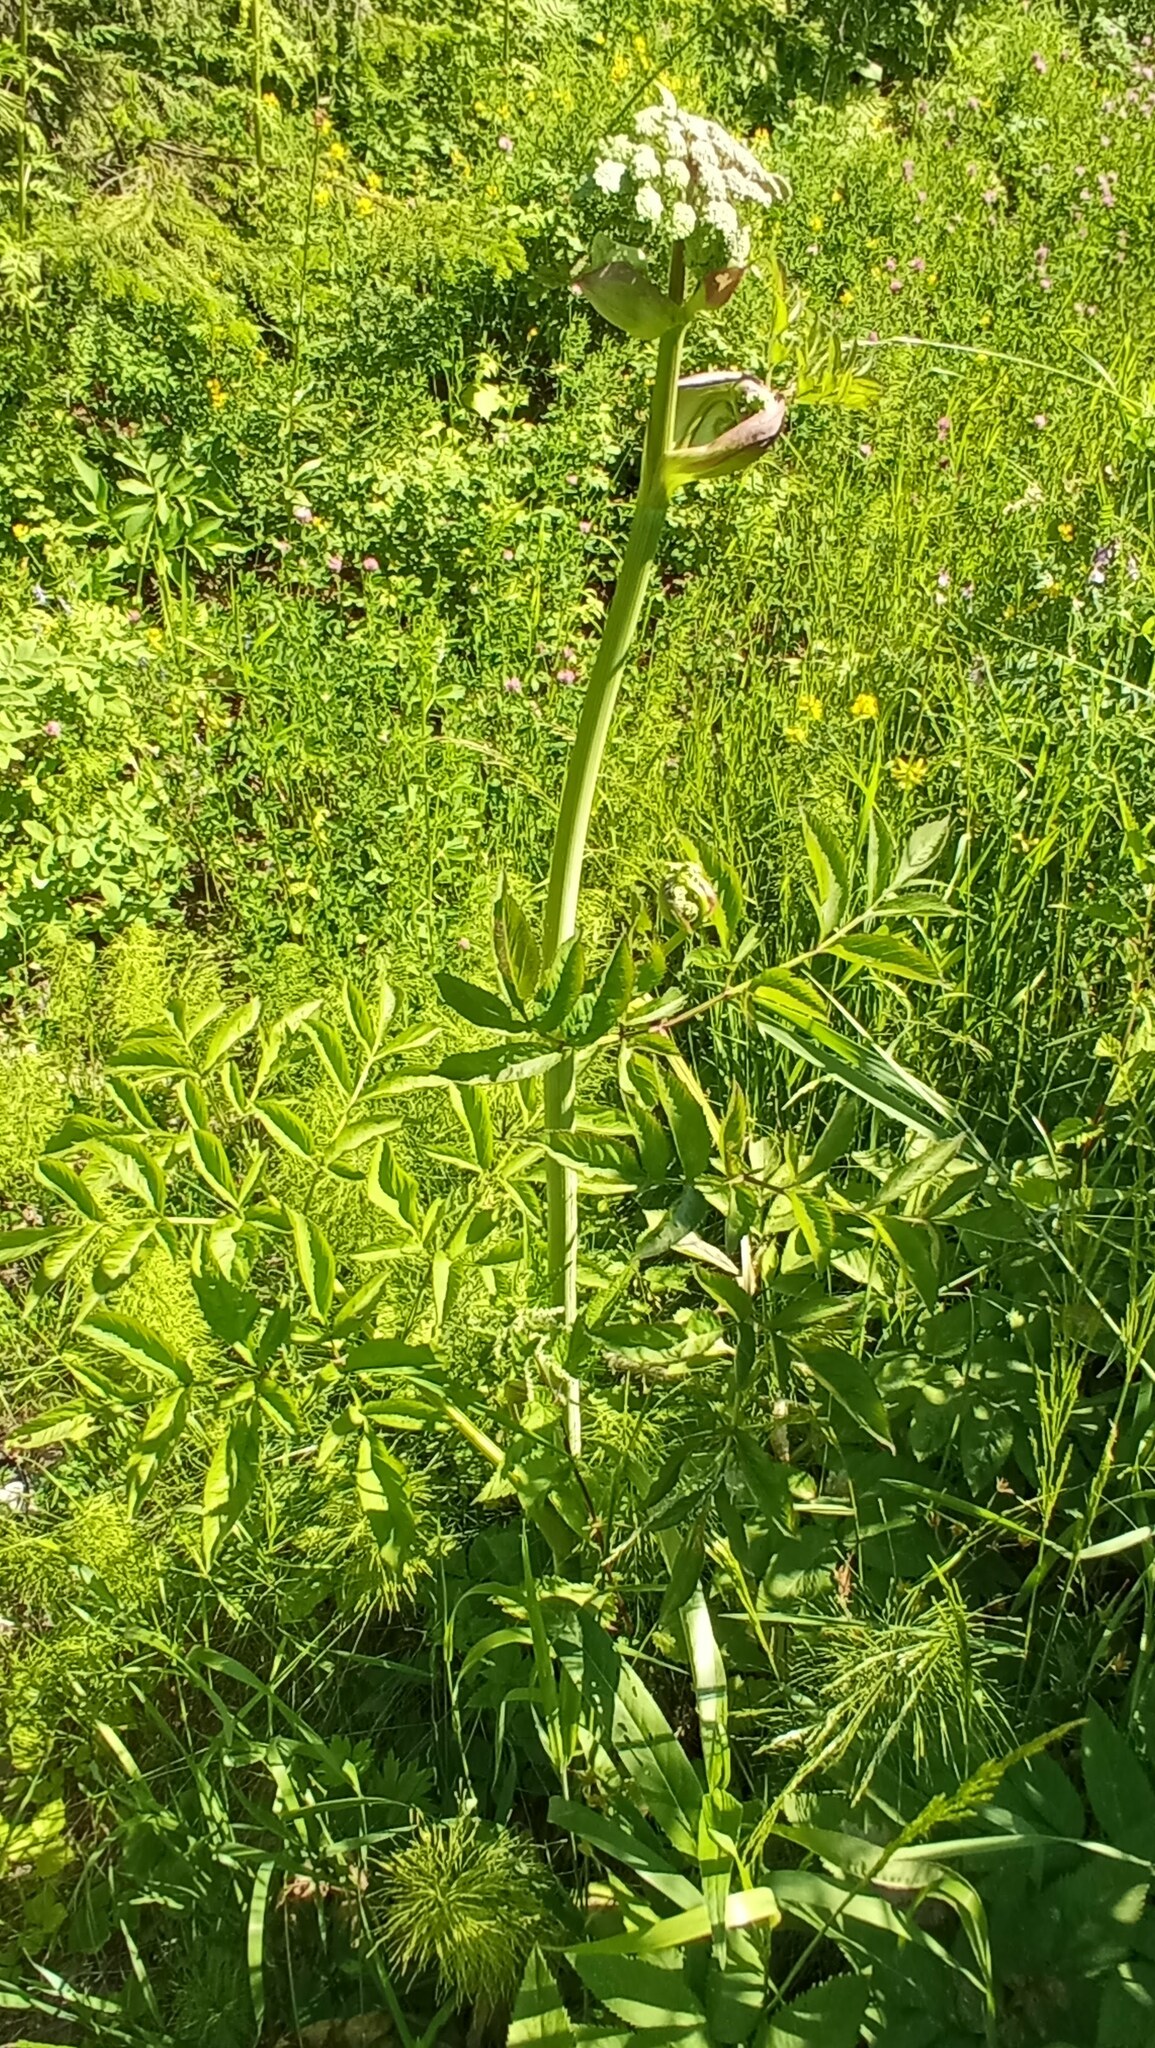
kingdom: Plantae
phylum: Tracheophyta
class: Magnoliopsida
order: Apiales
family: Apiaceae
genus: Angelica
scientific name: Angelica sylvestris
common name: Wild angelica
